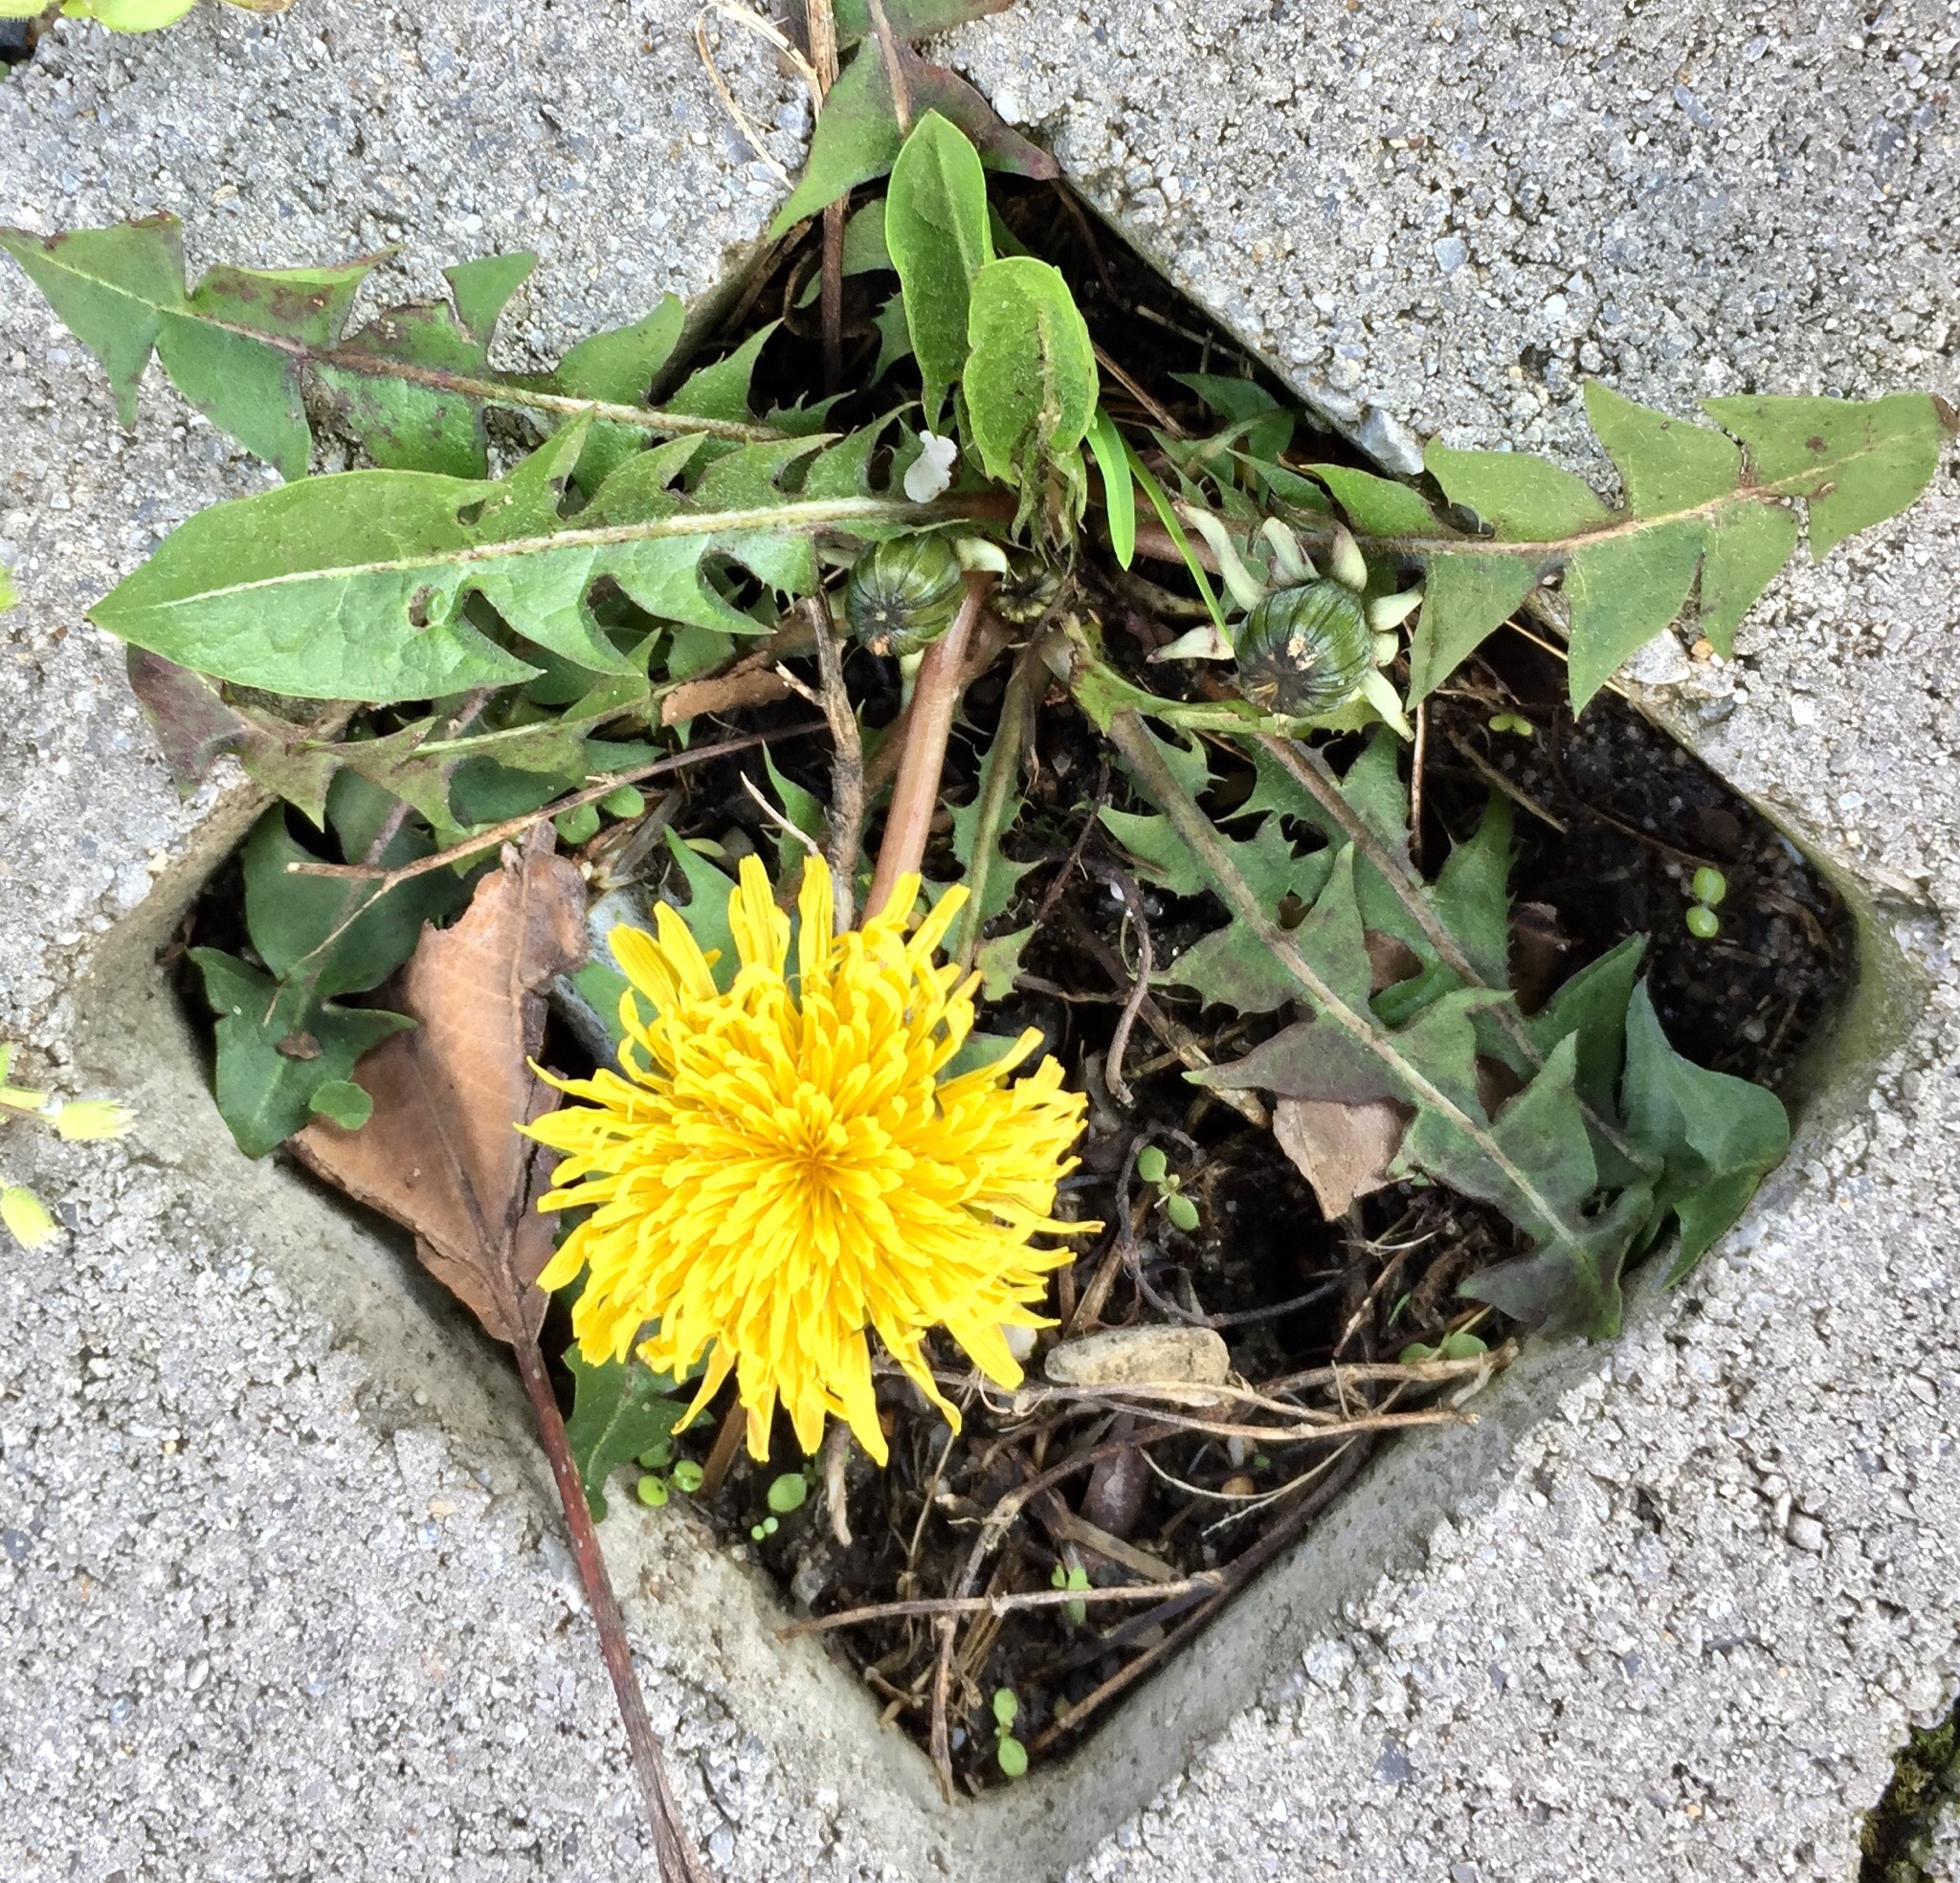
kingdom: Plantae
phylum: Tracheophyta
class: Magnoliopsida
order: Asterales
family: Asteraceae
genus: Taraxacum
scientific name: Taraxacum officinale
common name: Common dandelion
